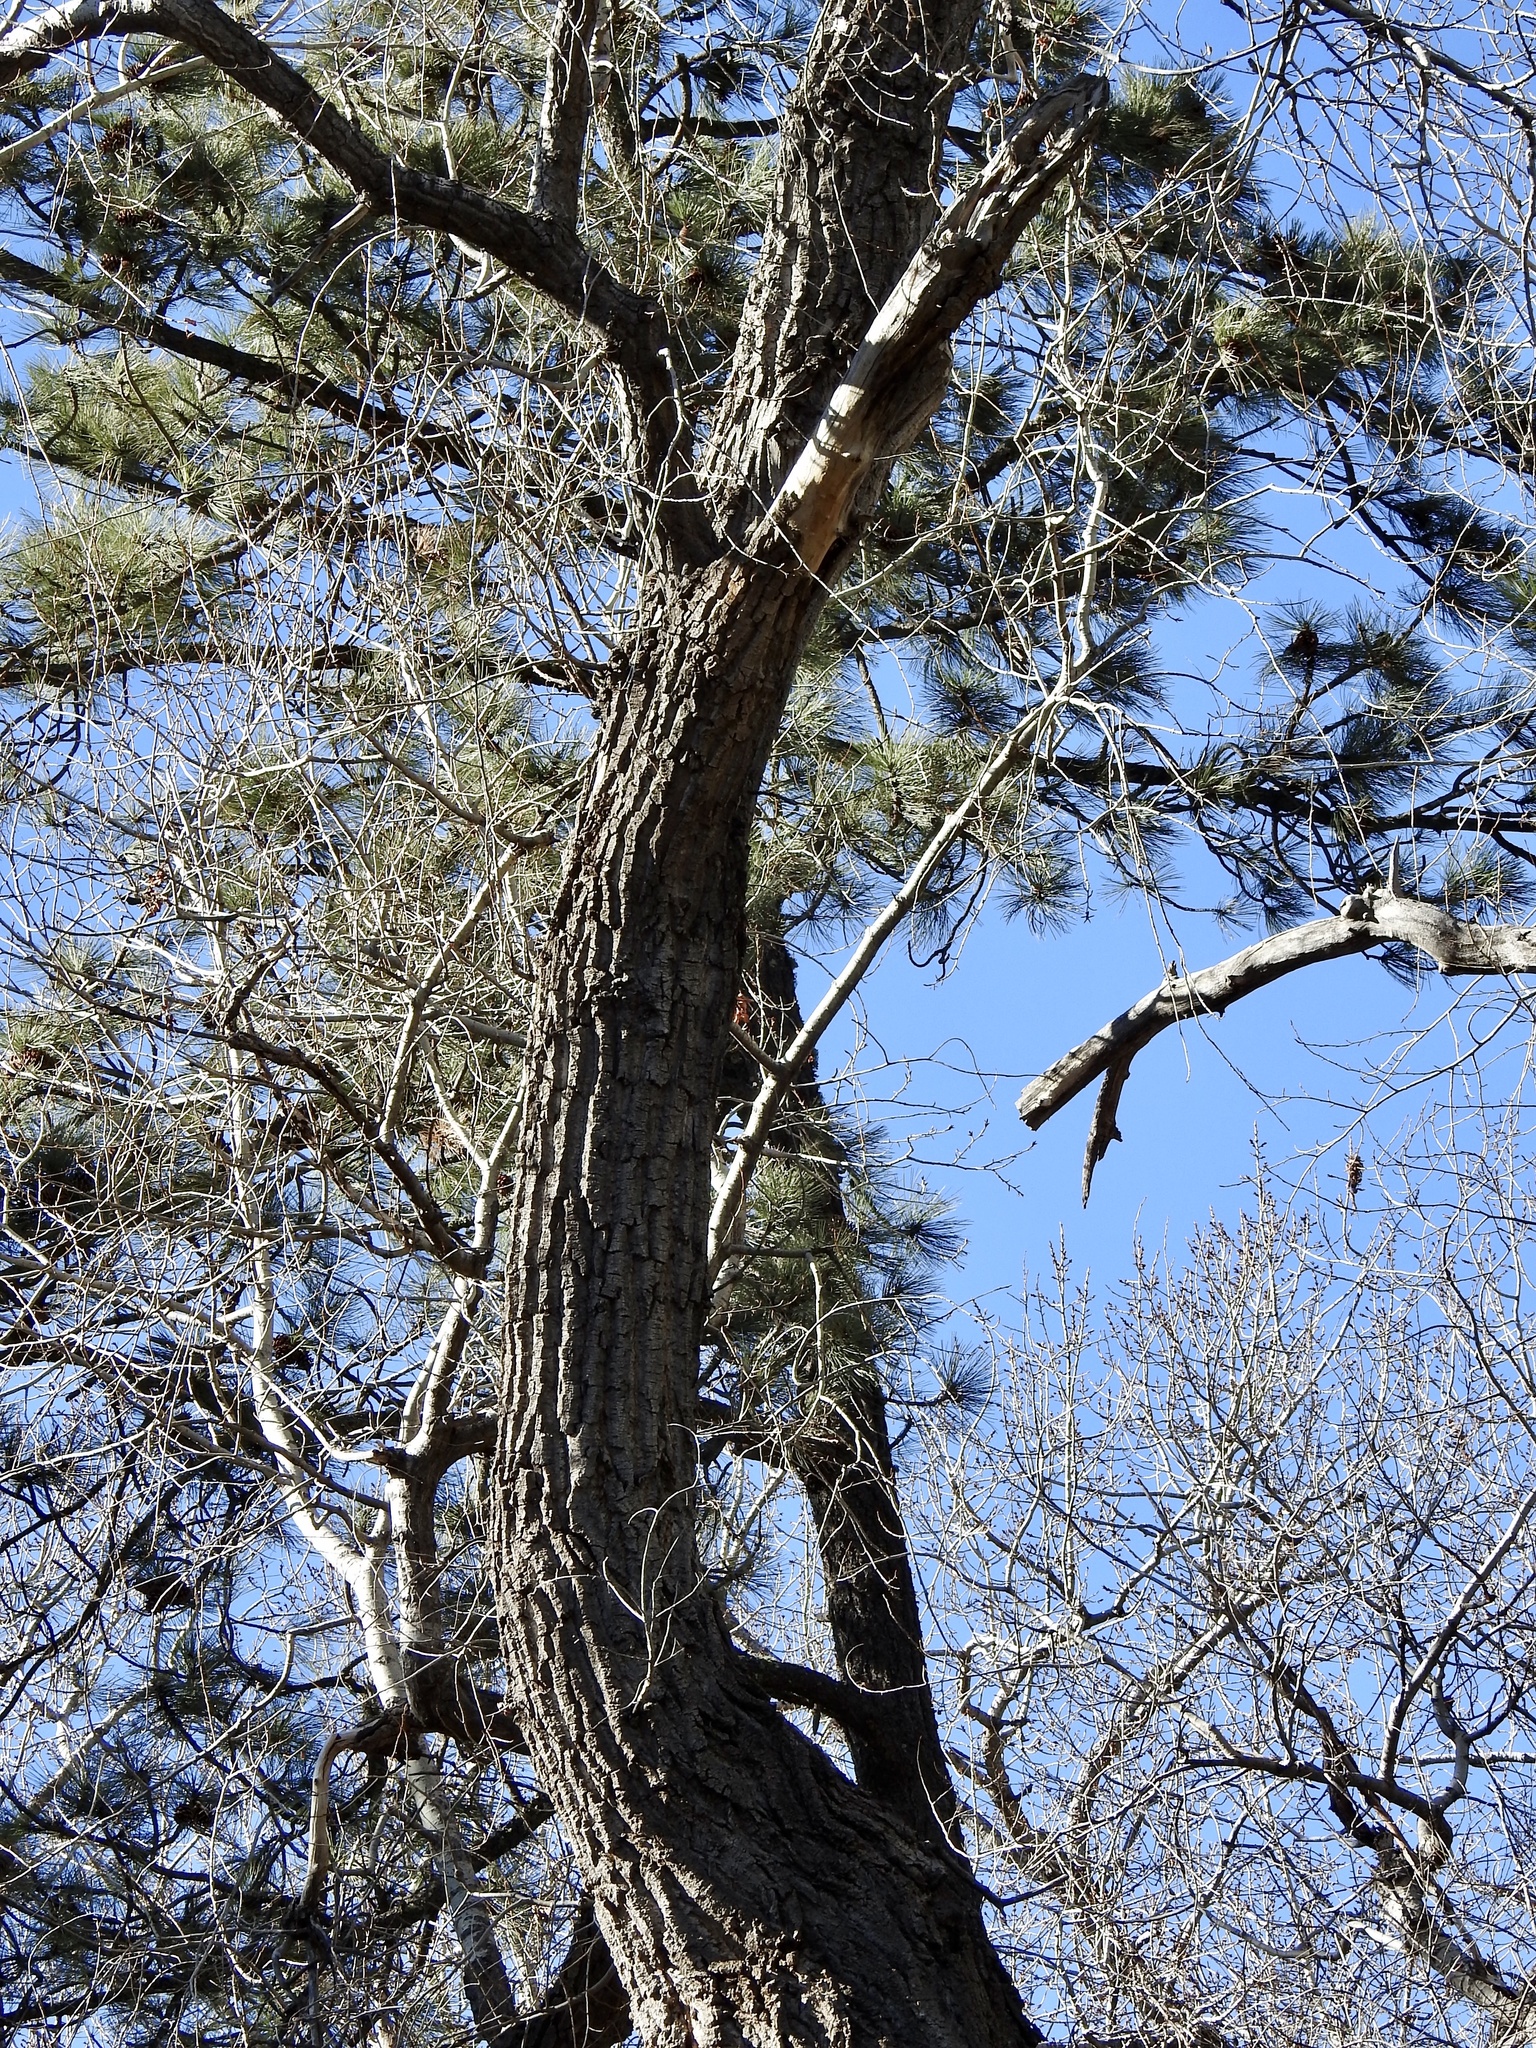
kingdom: Plantae
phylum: Tracheophyta
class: Magnoliopsida
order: Malpighiales
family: Salicaceae
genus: Populus
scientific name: Populus fremontii
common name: Fremont's cottonwood
